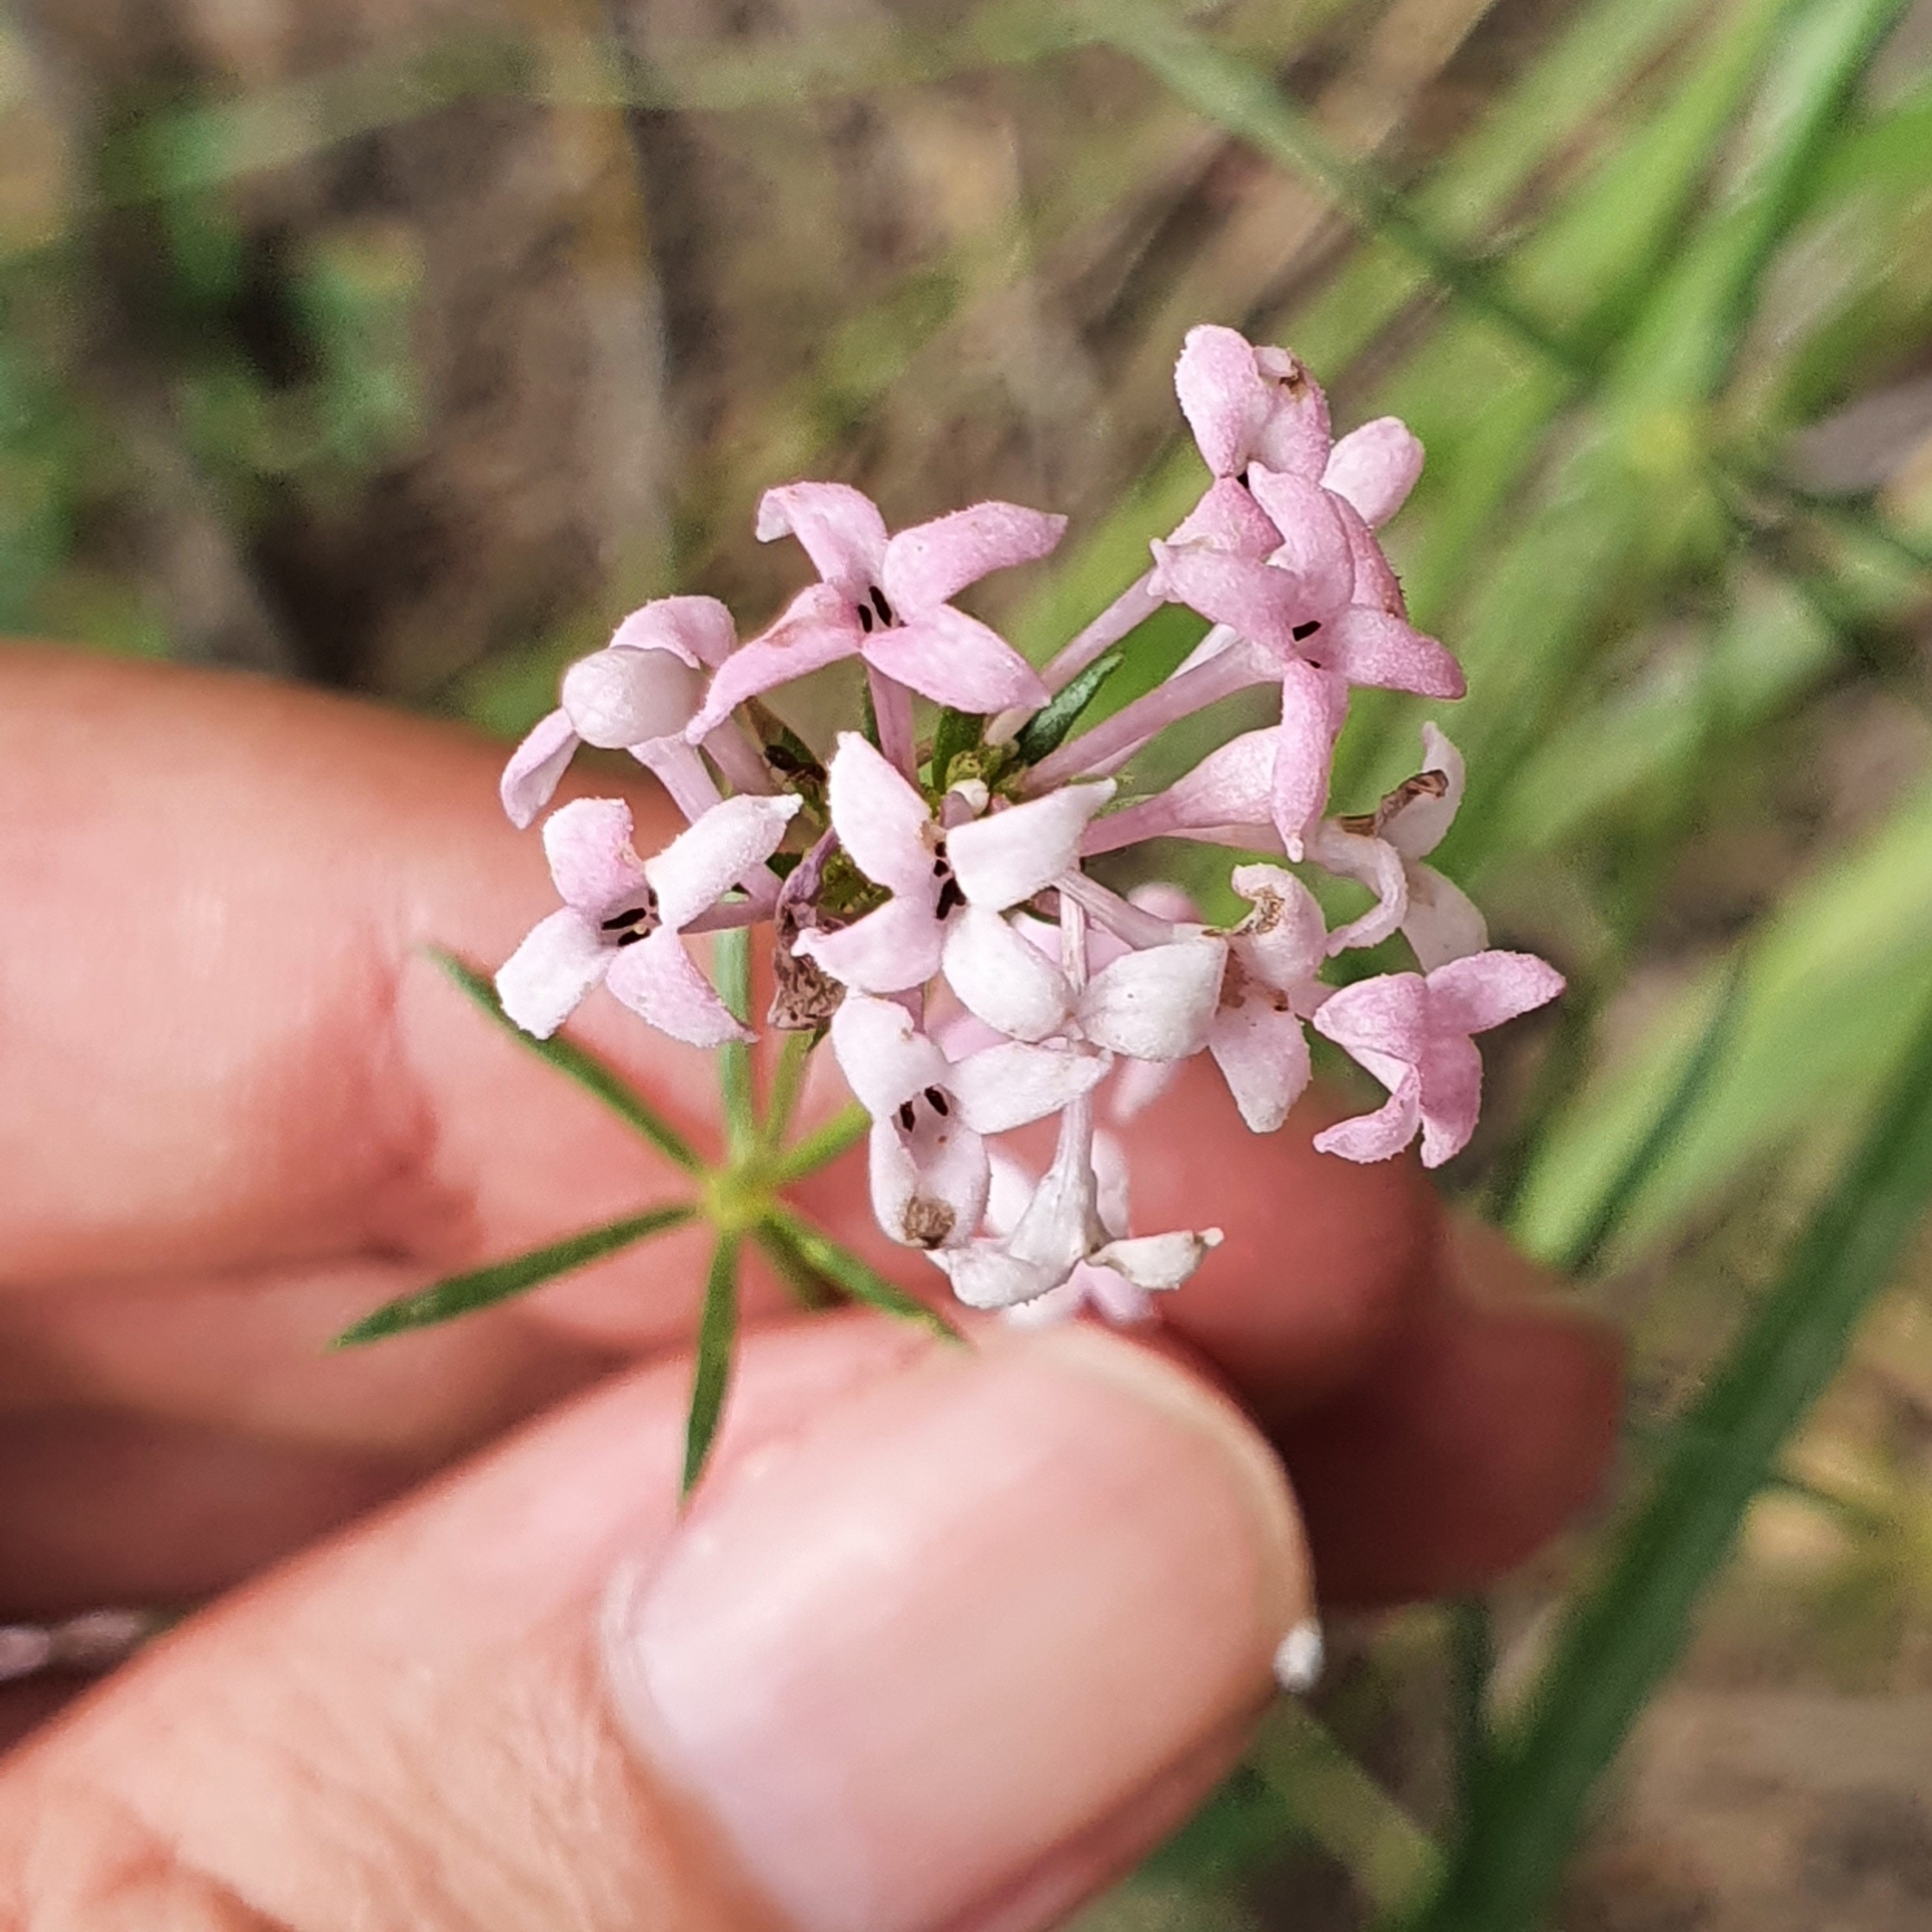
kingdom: Plantae
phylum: Tracheophyta
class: Magnoliopsida
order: Gentianales
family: Rubiaceae
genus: Hexaphylla
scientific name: Hexaphylla hirsuta
